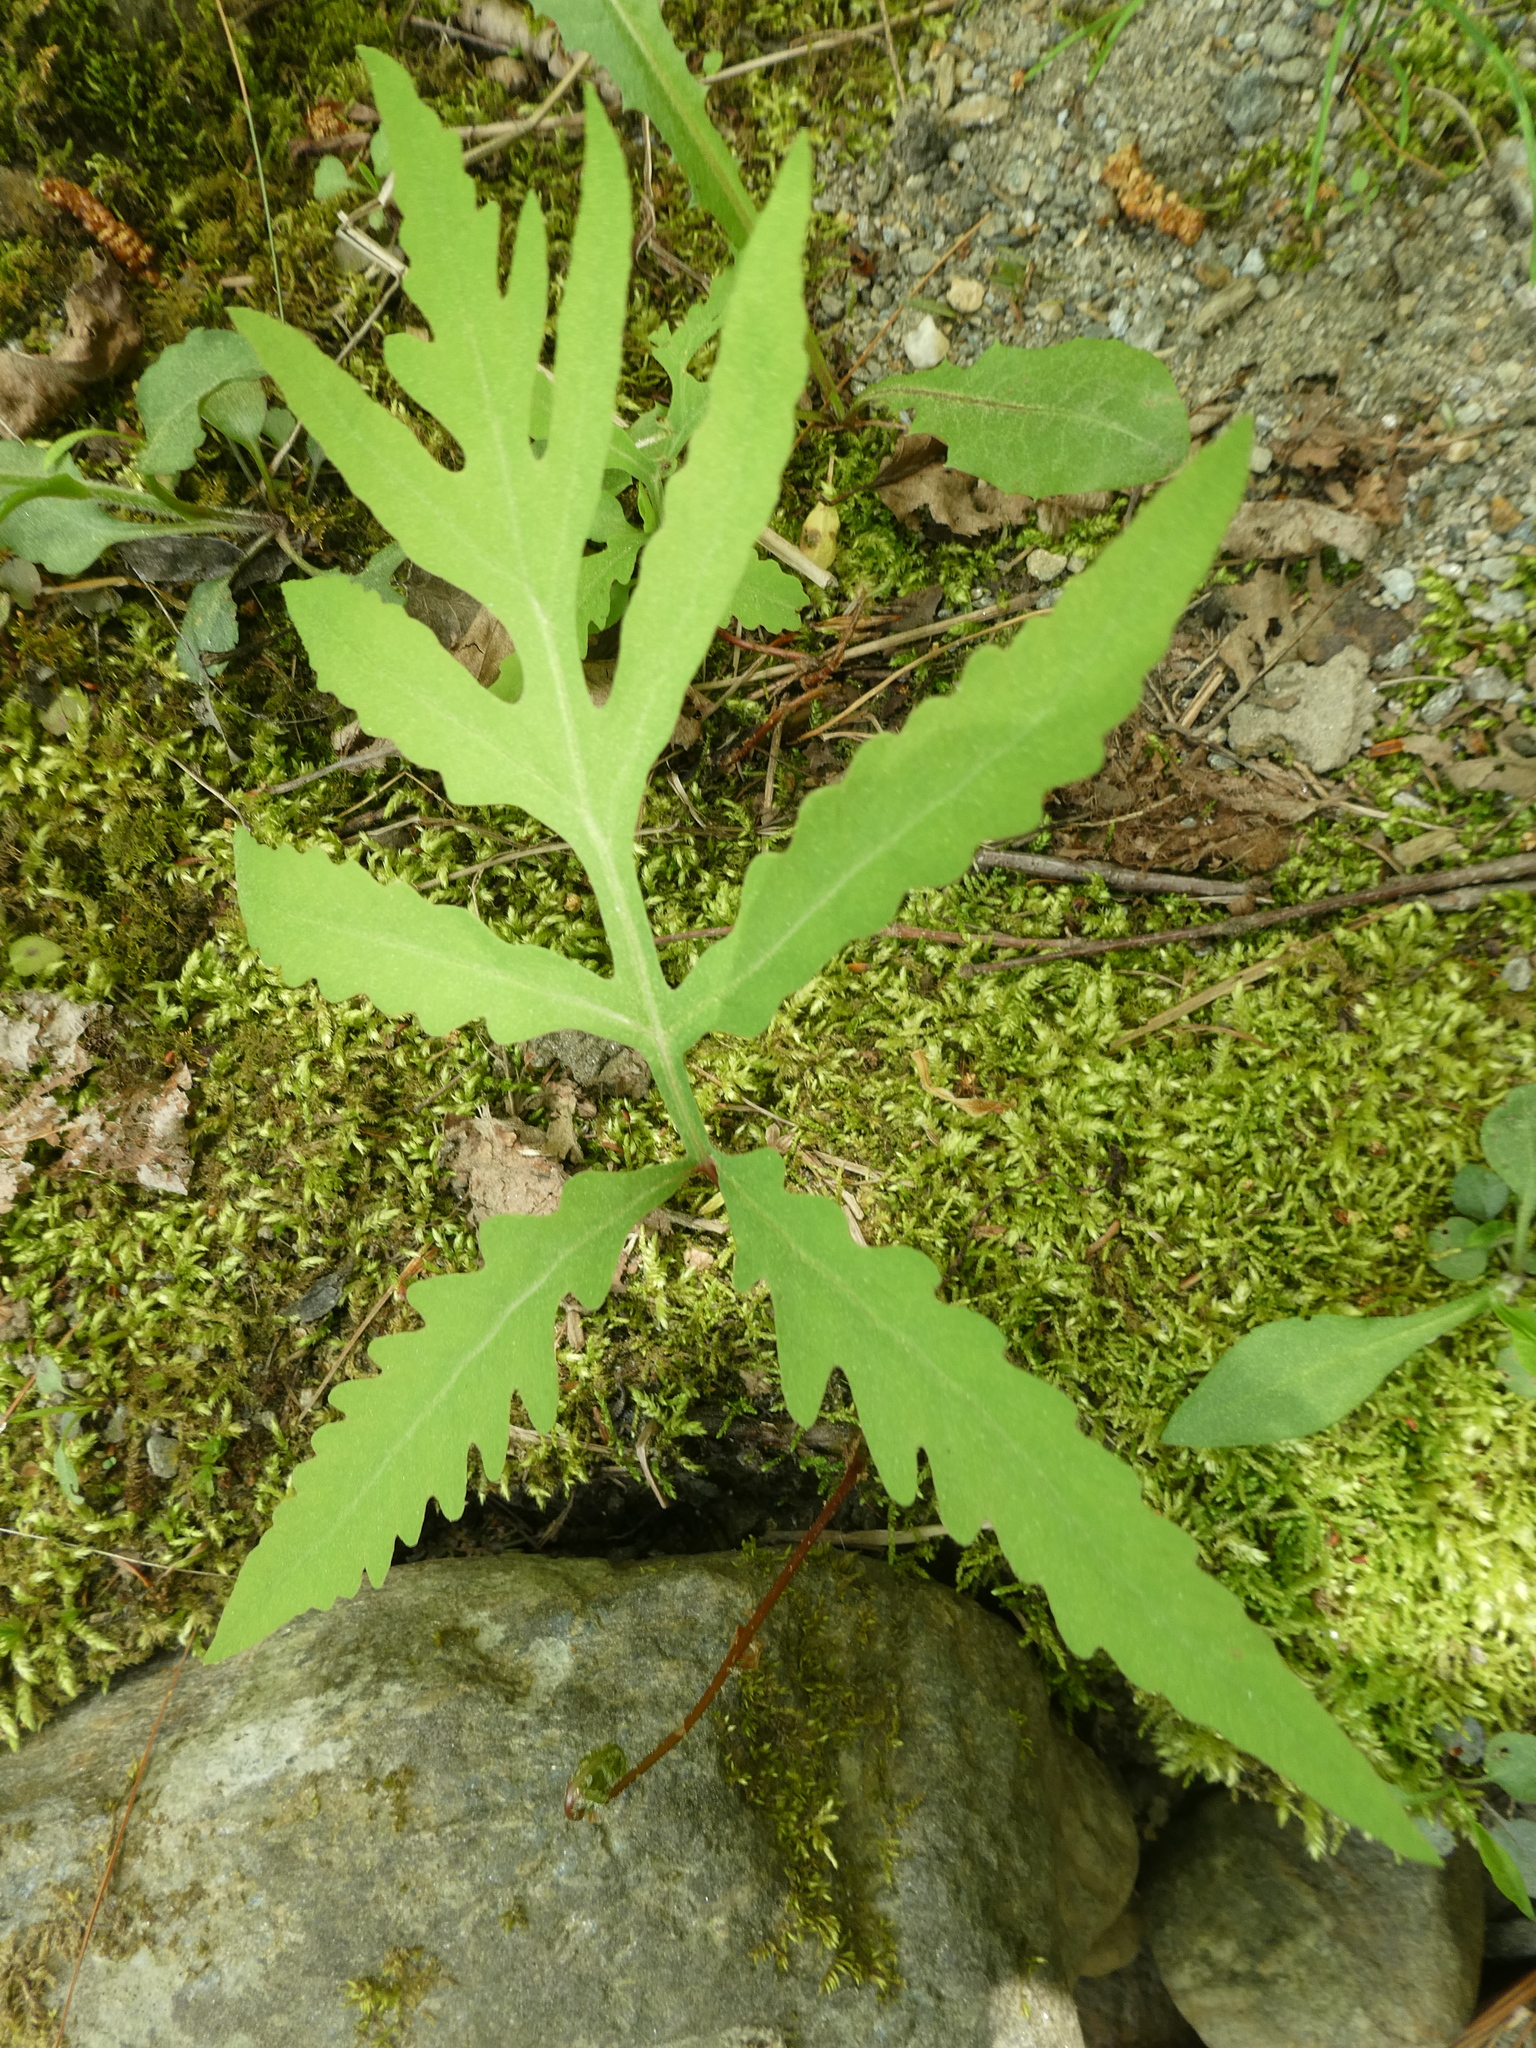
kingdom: Plantae
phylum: Tracheophyta
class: Polypodiopsida
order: Polypodiales
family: Onocleaceae
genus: Onoclea
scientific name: Onoclea sensibilis
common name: Sensitive fern
